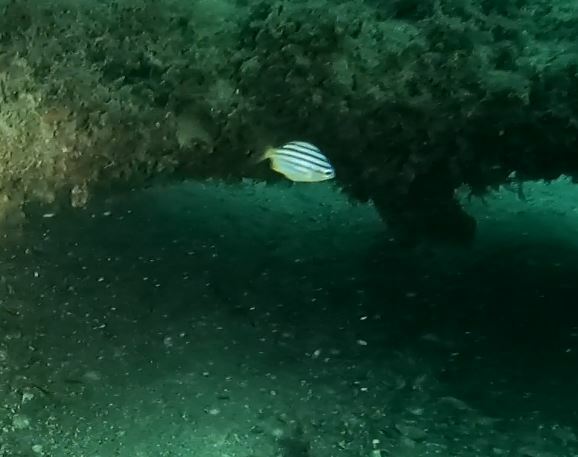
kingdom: Animalia
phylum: Chordata
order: Perciformes
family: Kyphosidae
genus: Atypichthys
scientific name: Atypichthys strigatus
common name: Australian mado
